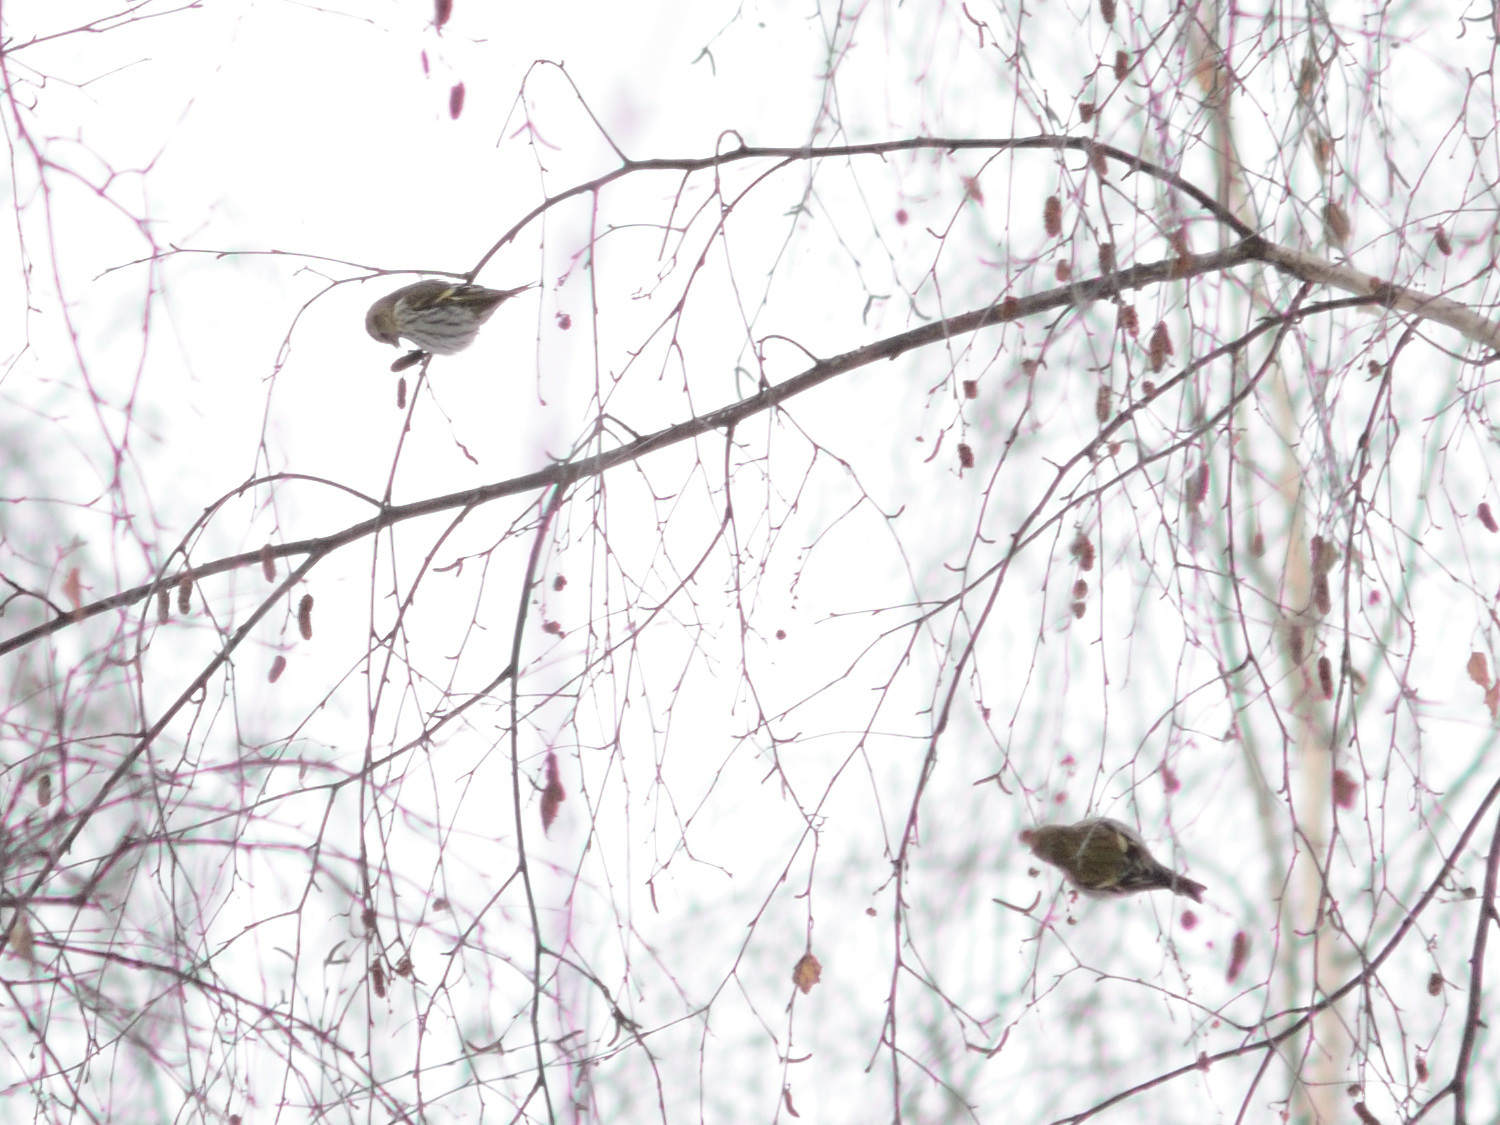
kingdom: Animalia
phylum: Chordata
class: Aves
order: Passeriformes
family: Fringillidae
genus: Spinus
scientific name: Spinus spinus
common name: Eurasian siskin
